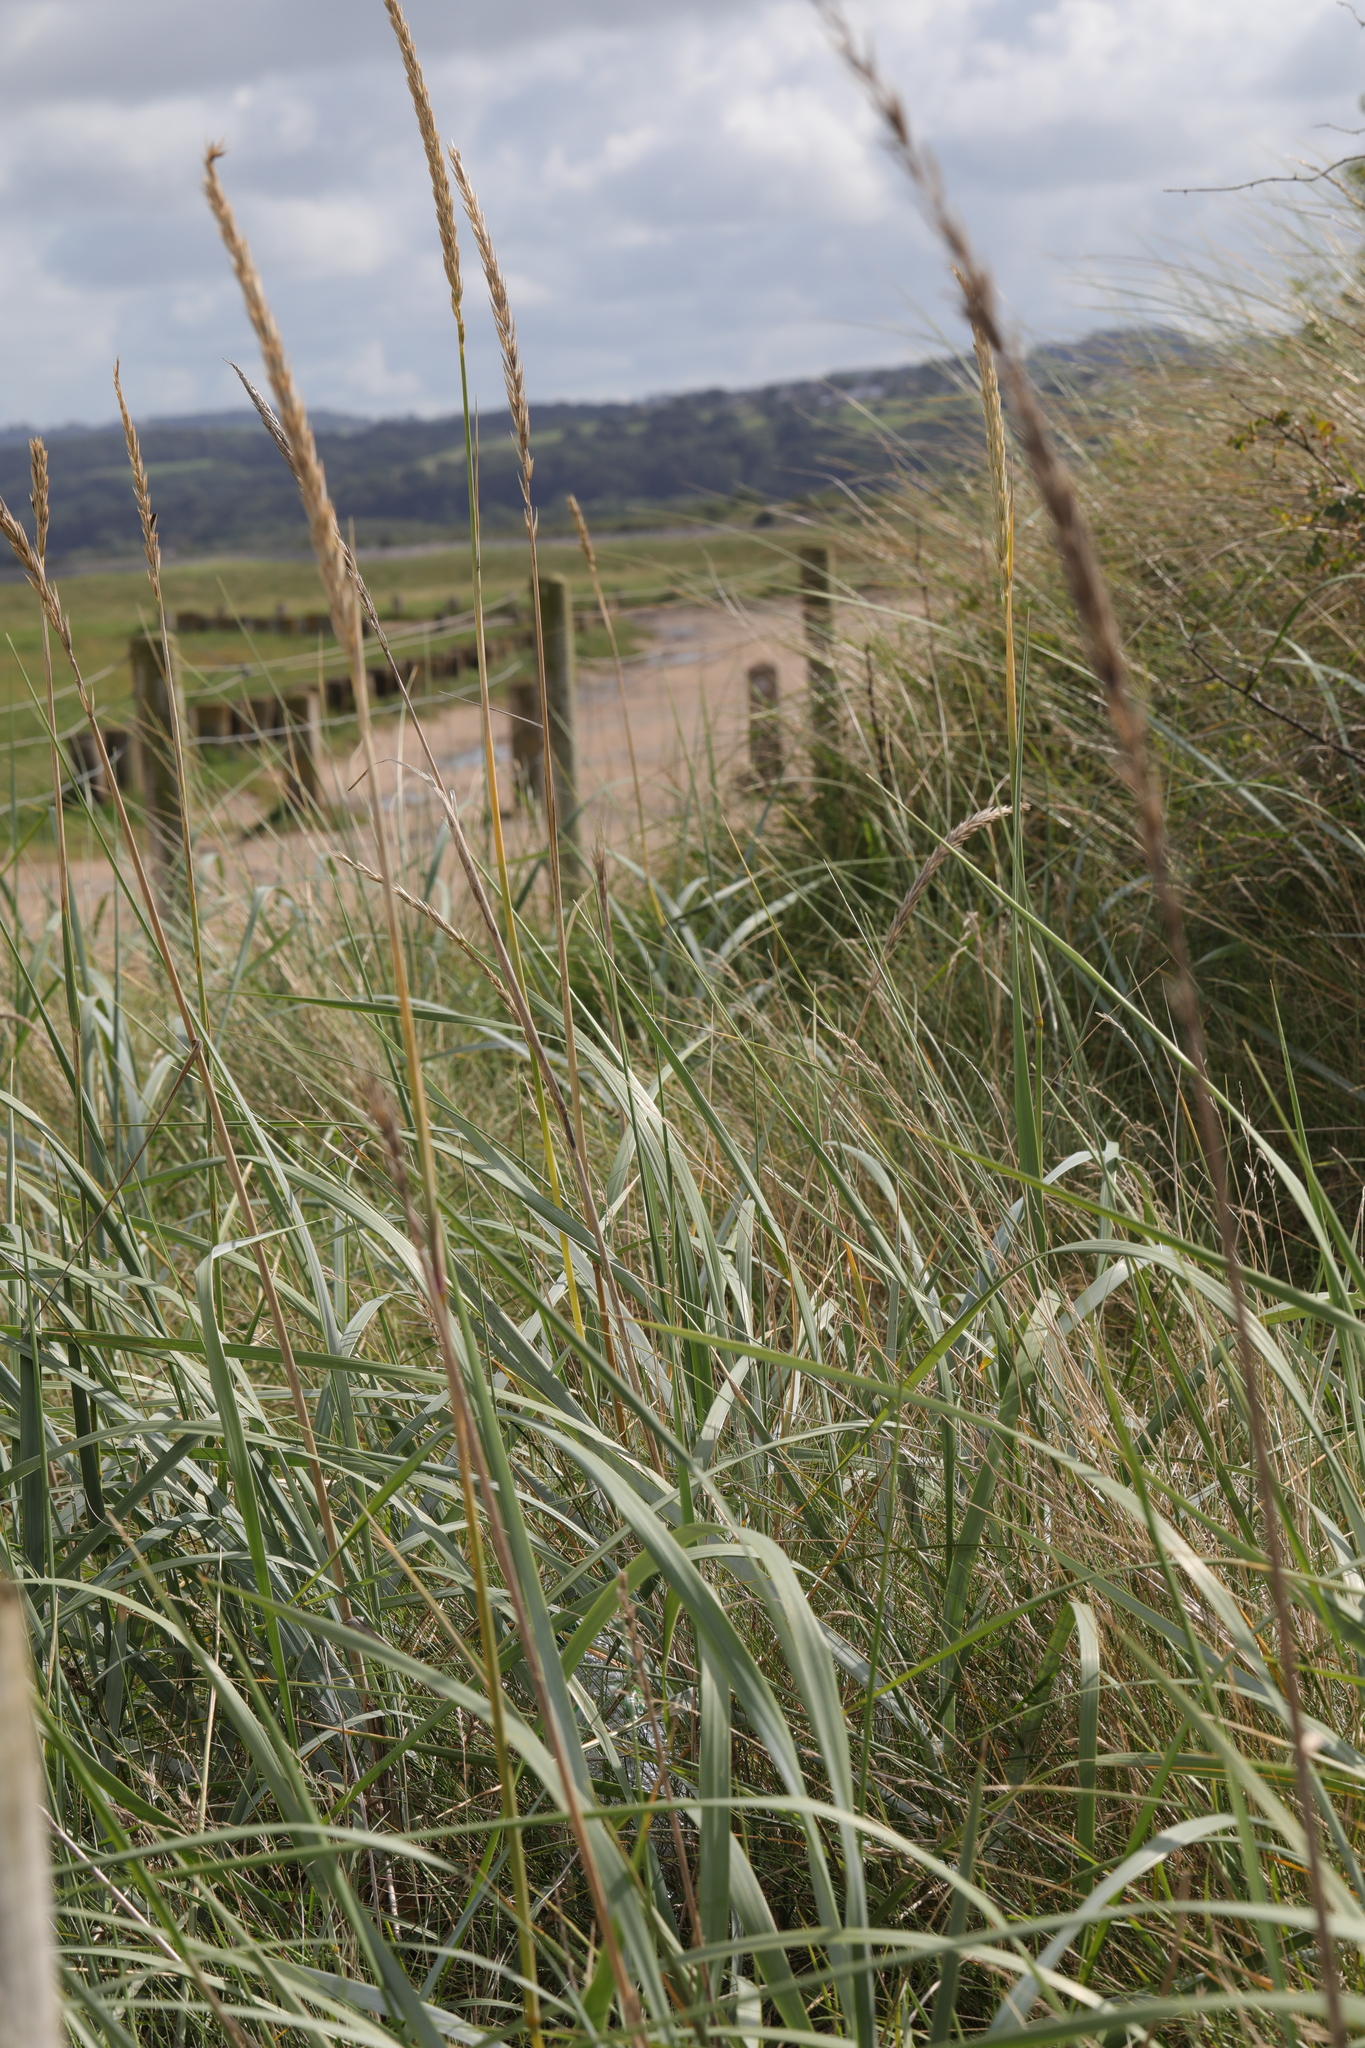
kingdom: Plantae
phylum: Tracheophyta
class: Liliopsida
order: Poales
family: Poaceae
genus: Leymus
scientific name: Leymus arenarius
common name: Lyme-grass
